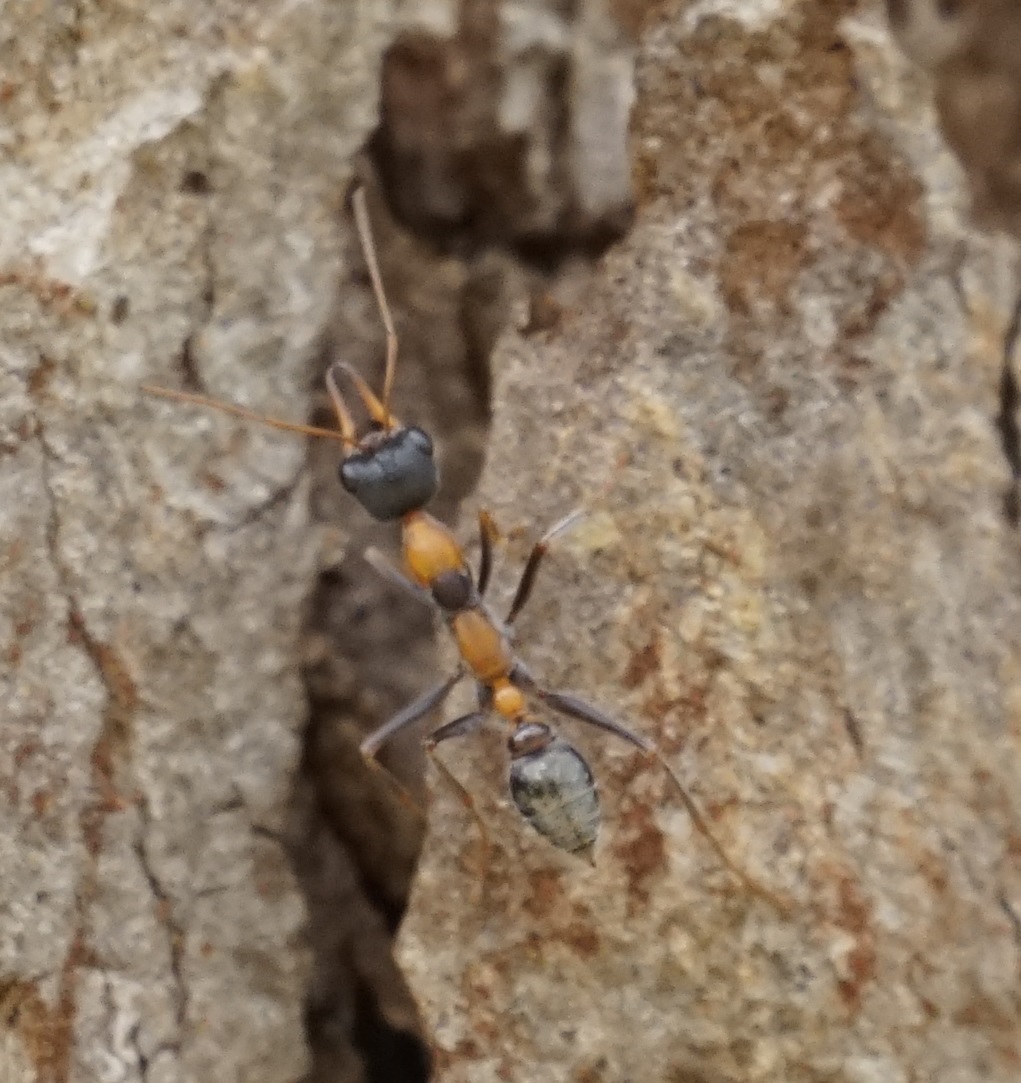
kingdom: Animalia
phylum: Arthropoda
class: Insecta
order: Hymenoptera
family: Formicidae
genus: Myrmecia
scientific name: Myrmecia nigrocincta
